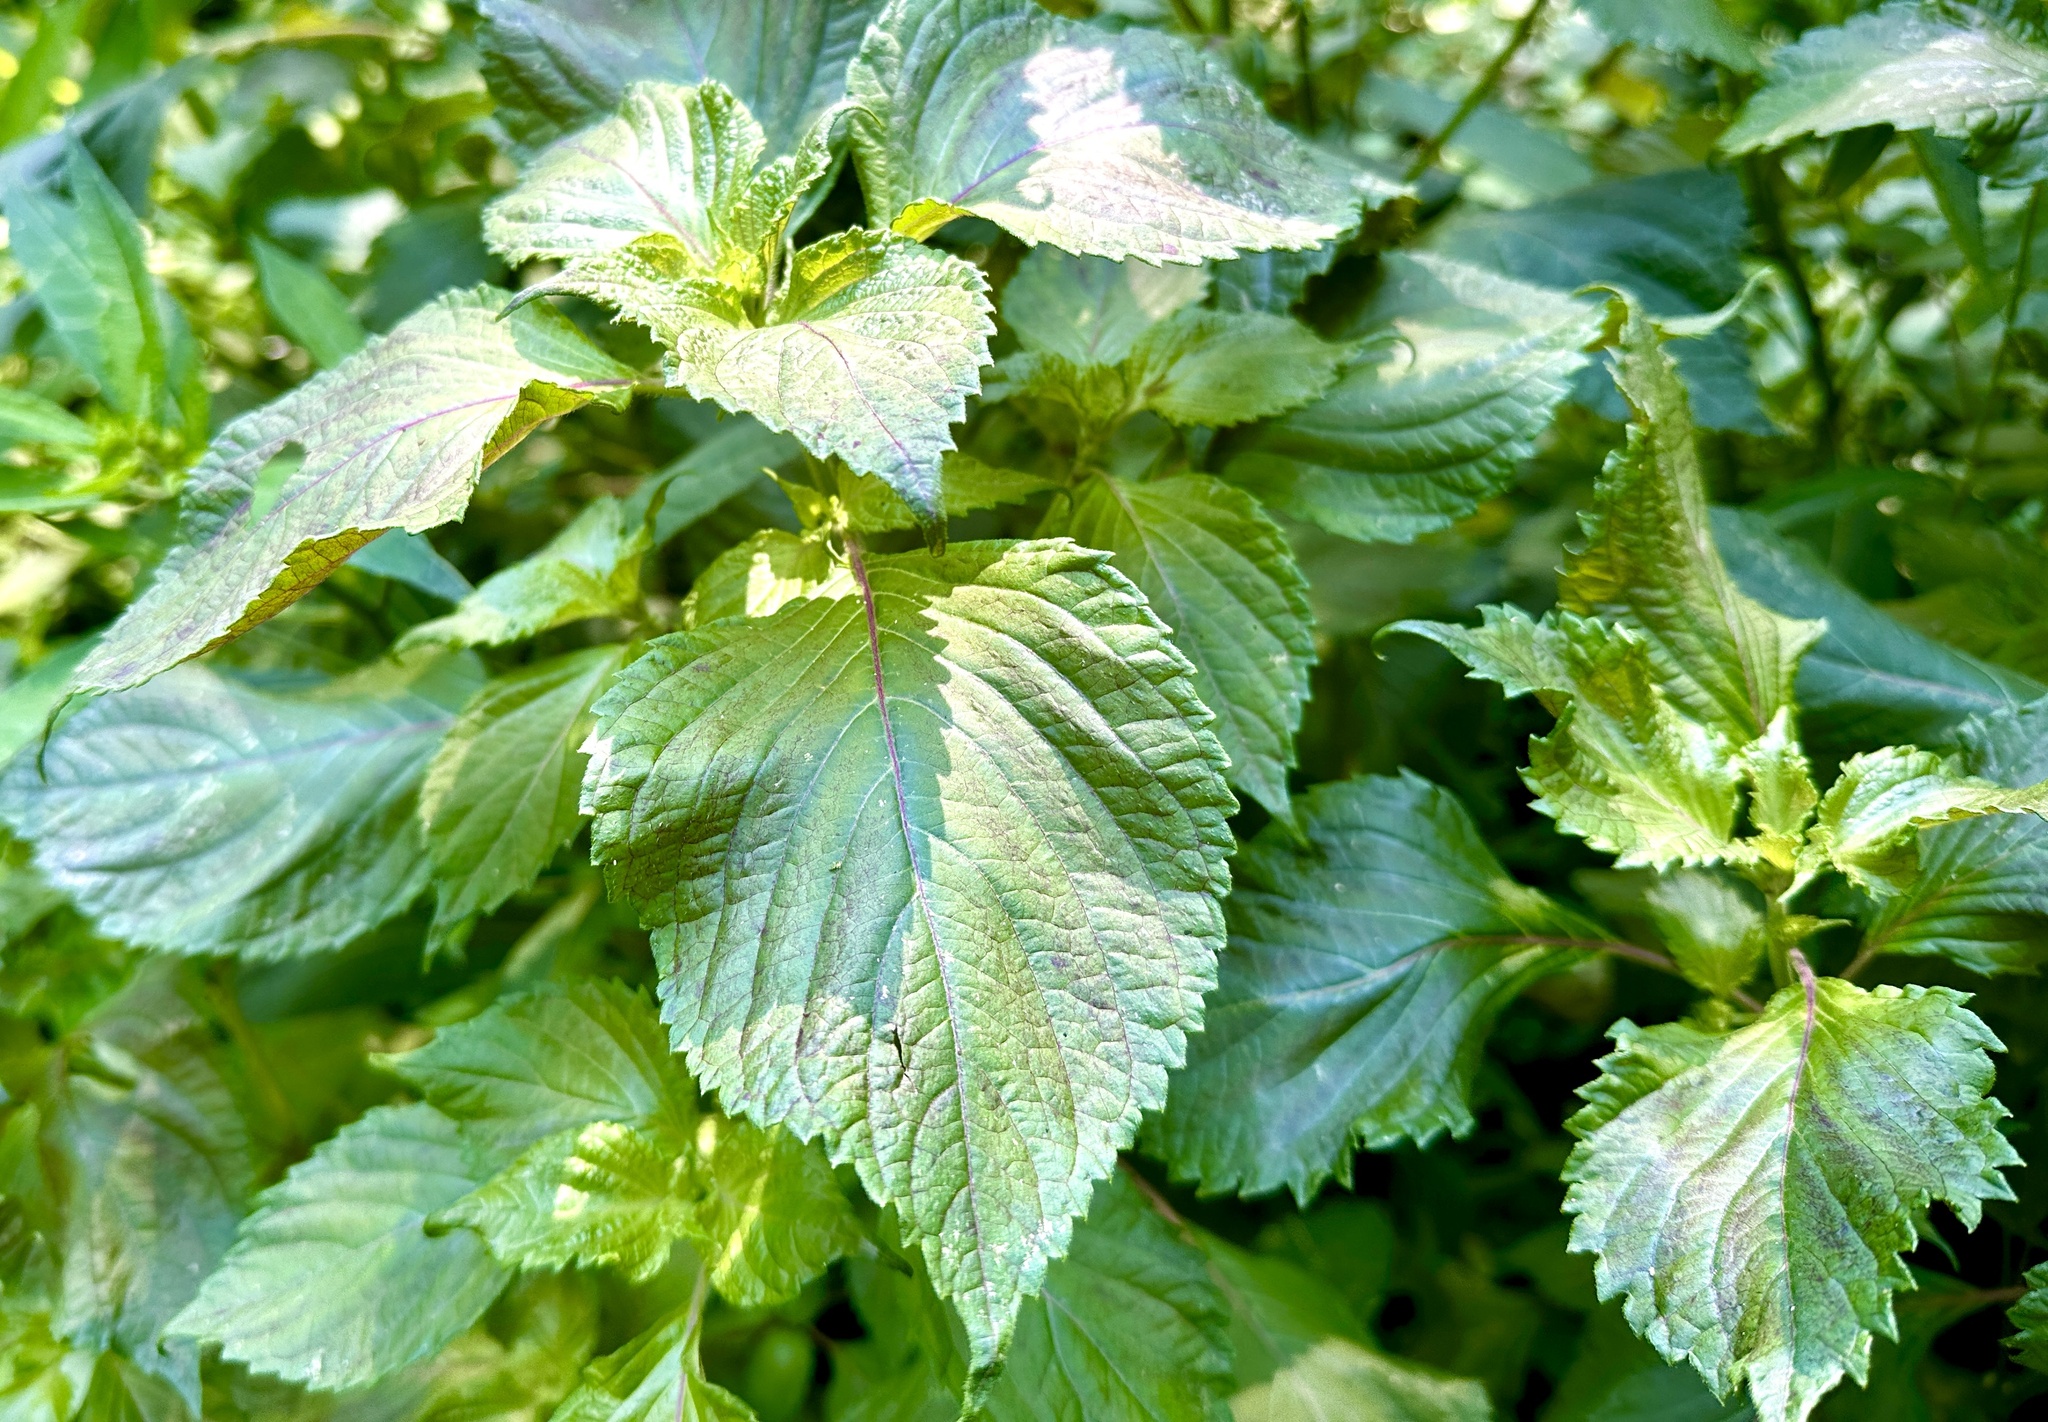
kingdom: Plantae
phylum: Tracheophyta
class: Magnoliopsida
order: Lamiales
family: Lamiaceae
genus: Perilla
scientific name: Perilla frutescens
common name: Perilla
